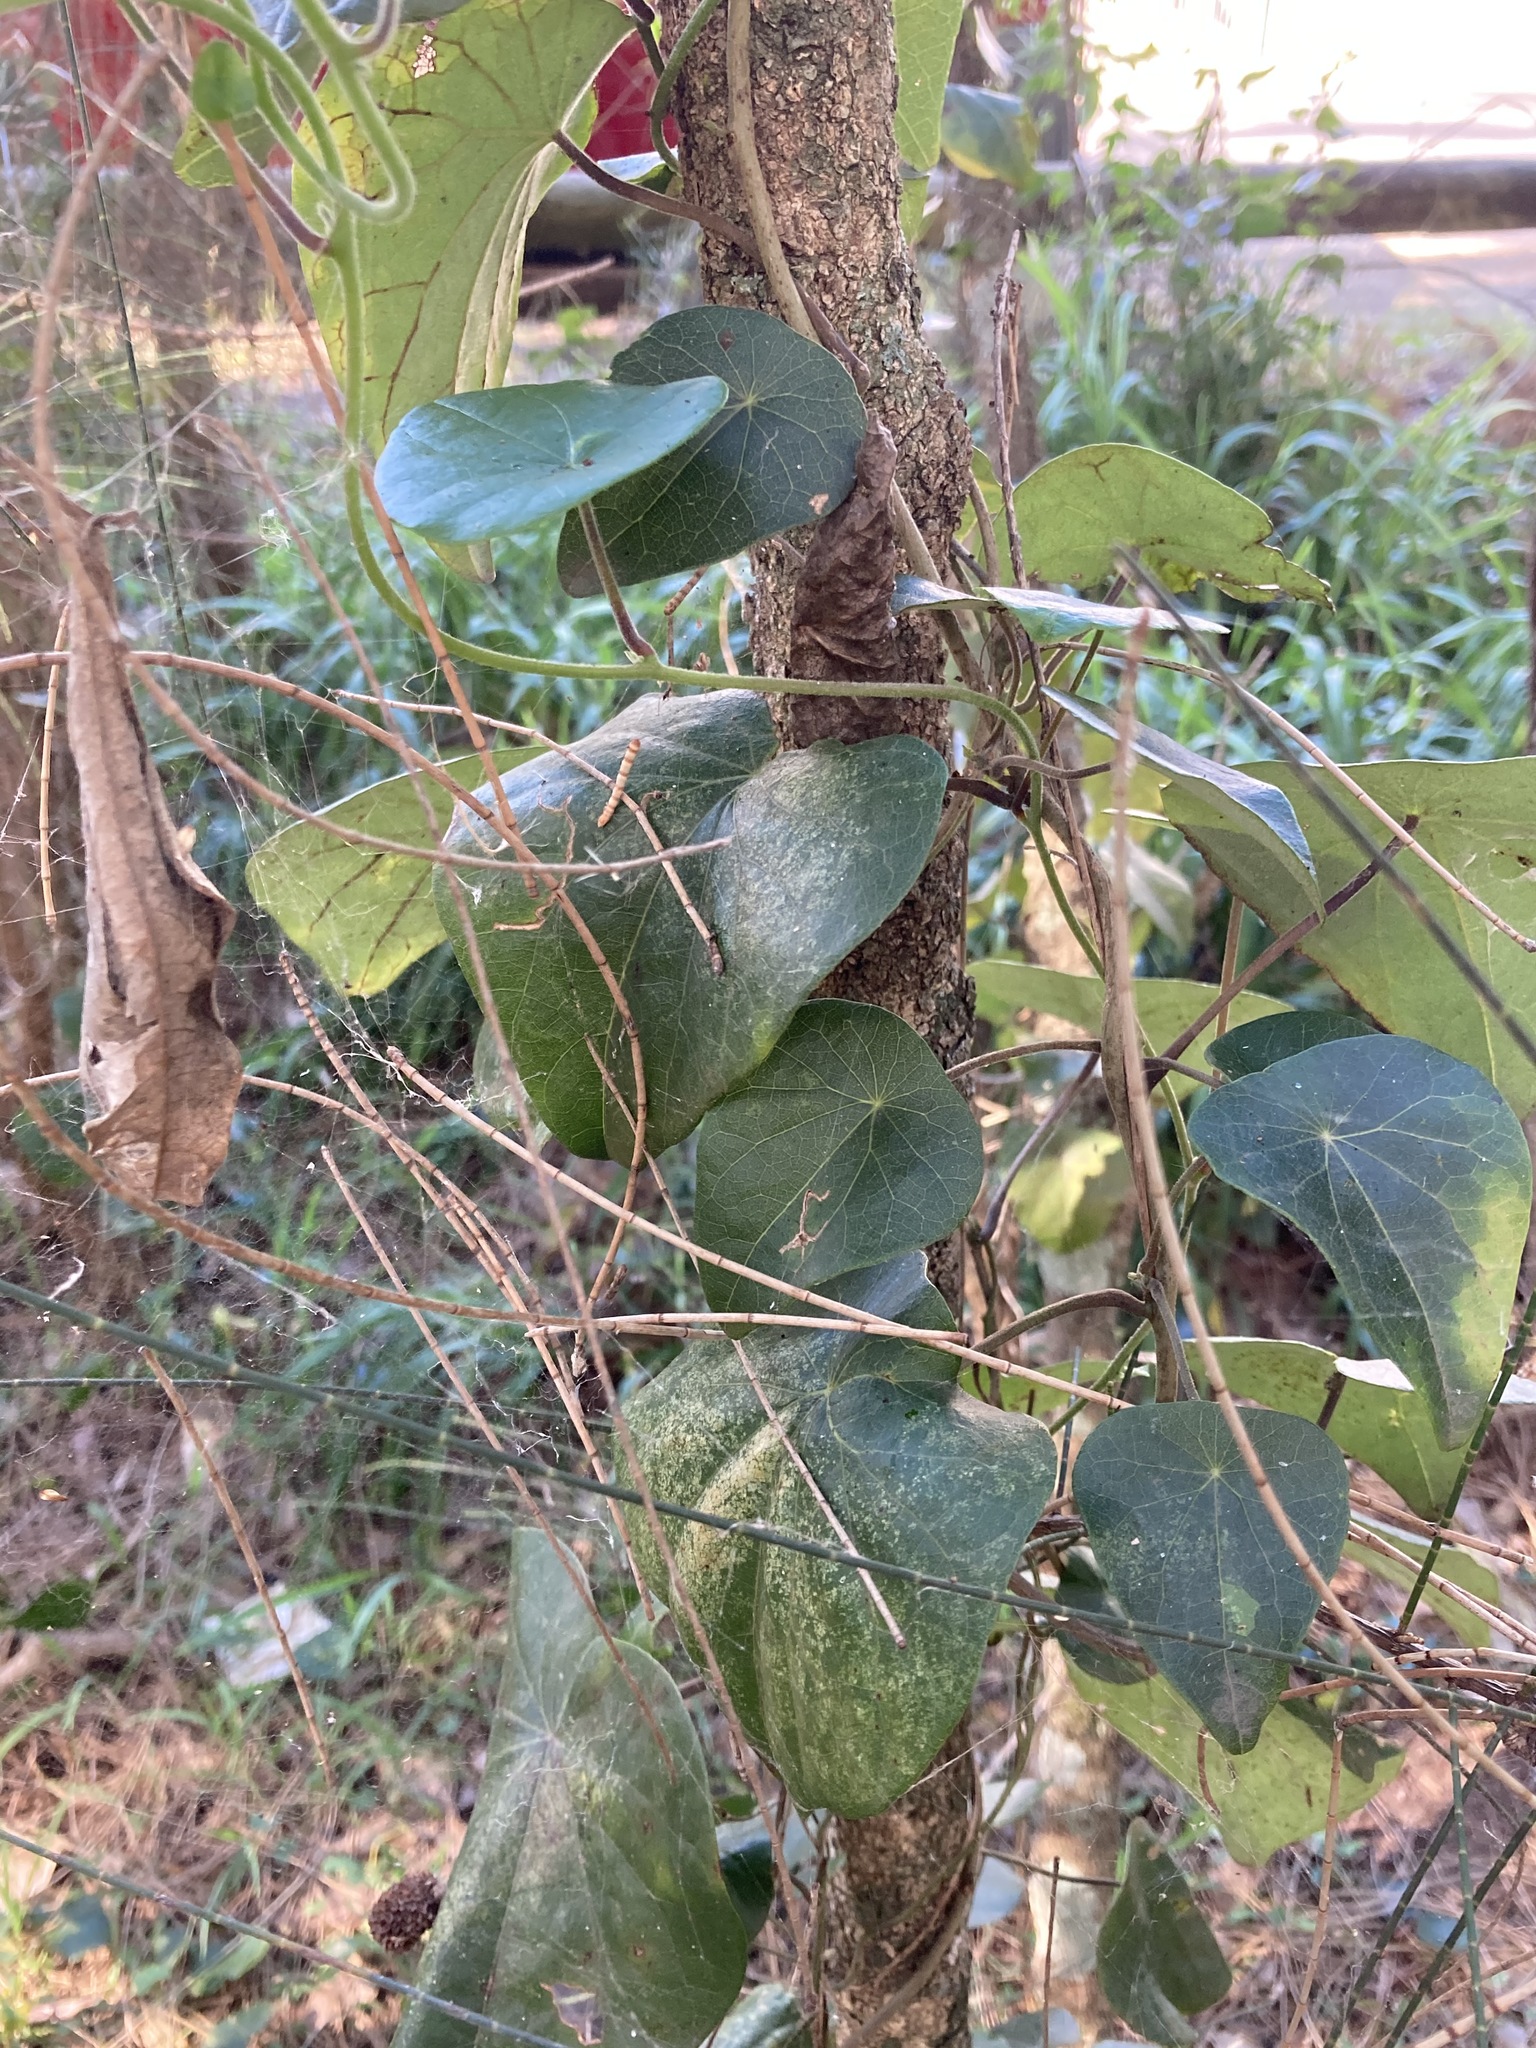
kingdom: Plantae
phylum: Tracheophyta
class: Magnoliopsida
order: Ranunculales
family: Menispermaceae
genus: Stephania
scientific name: Stephania japonica
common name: Snake vine
